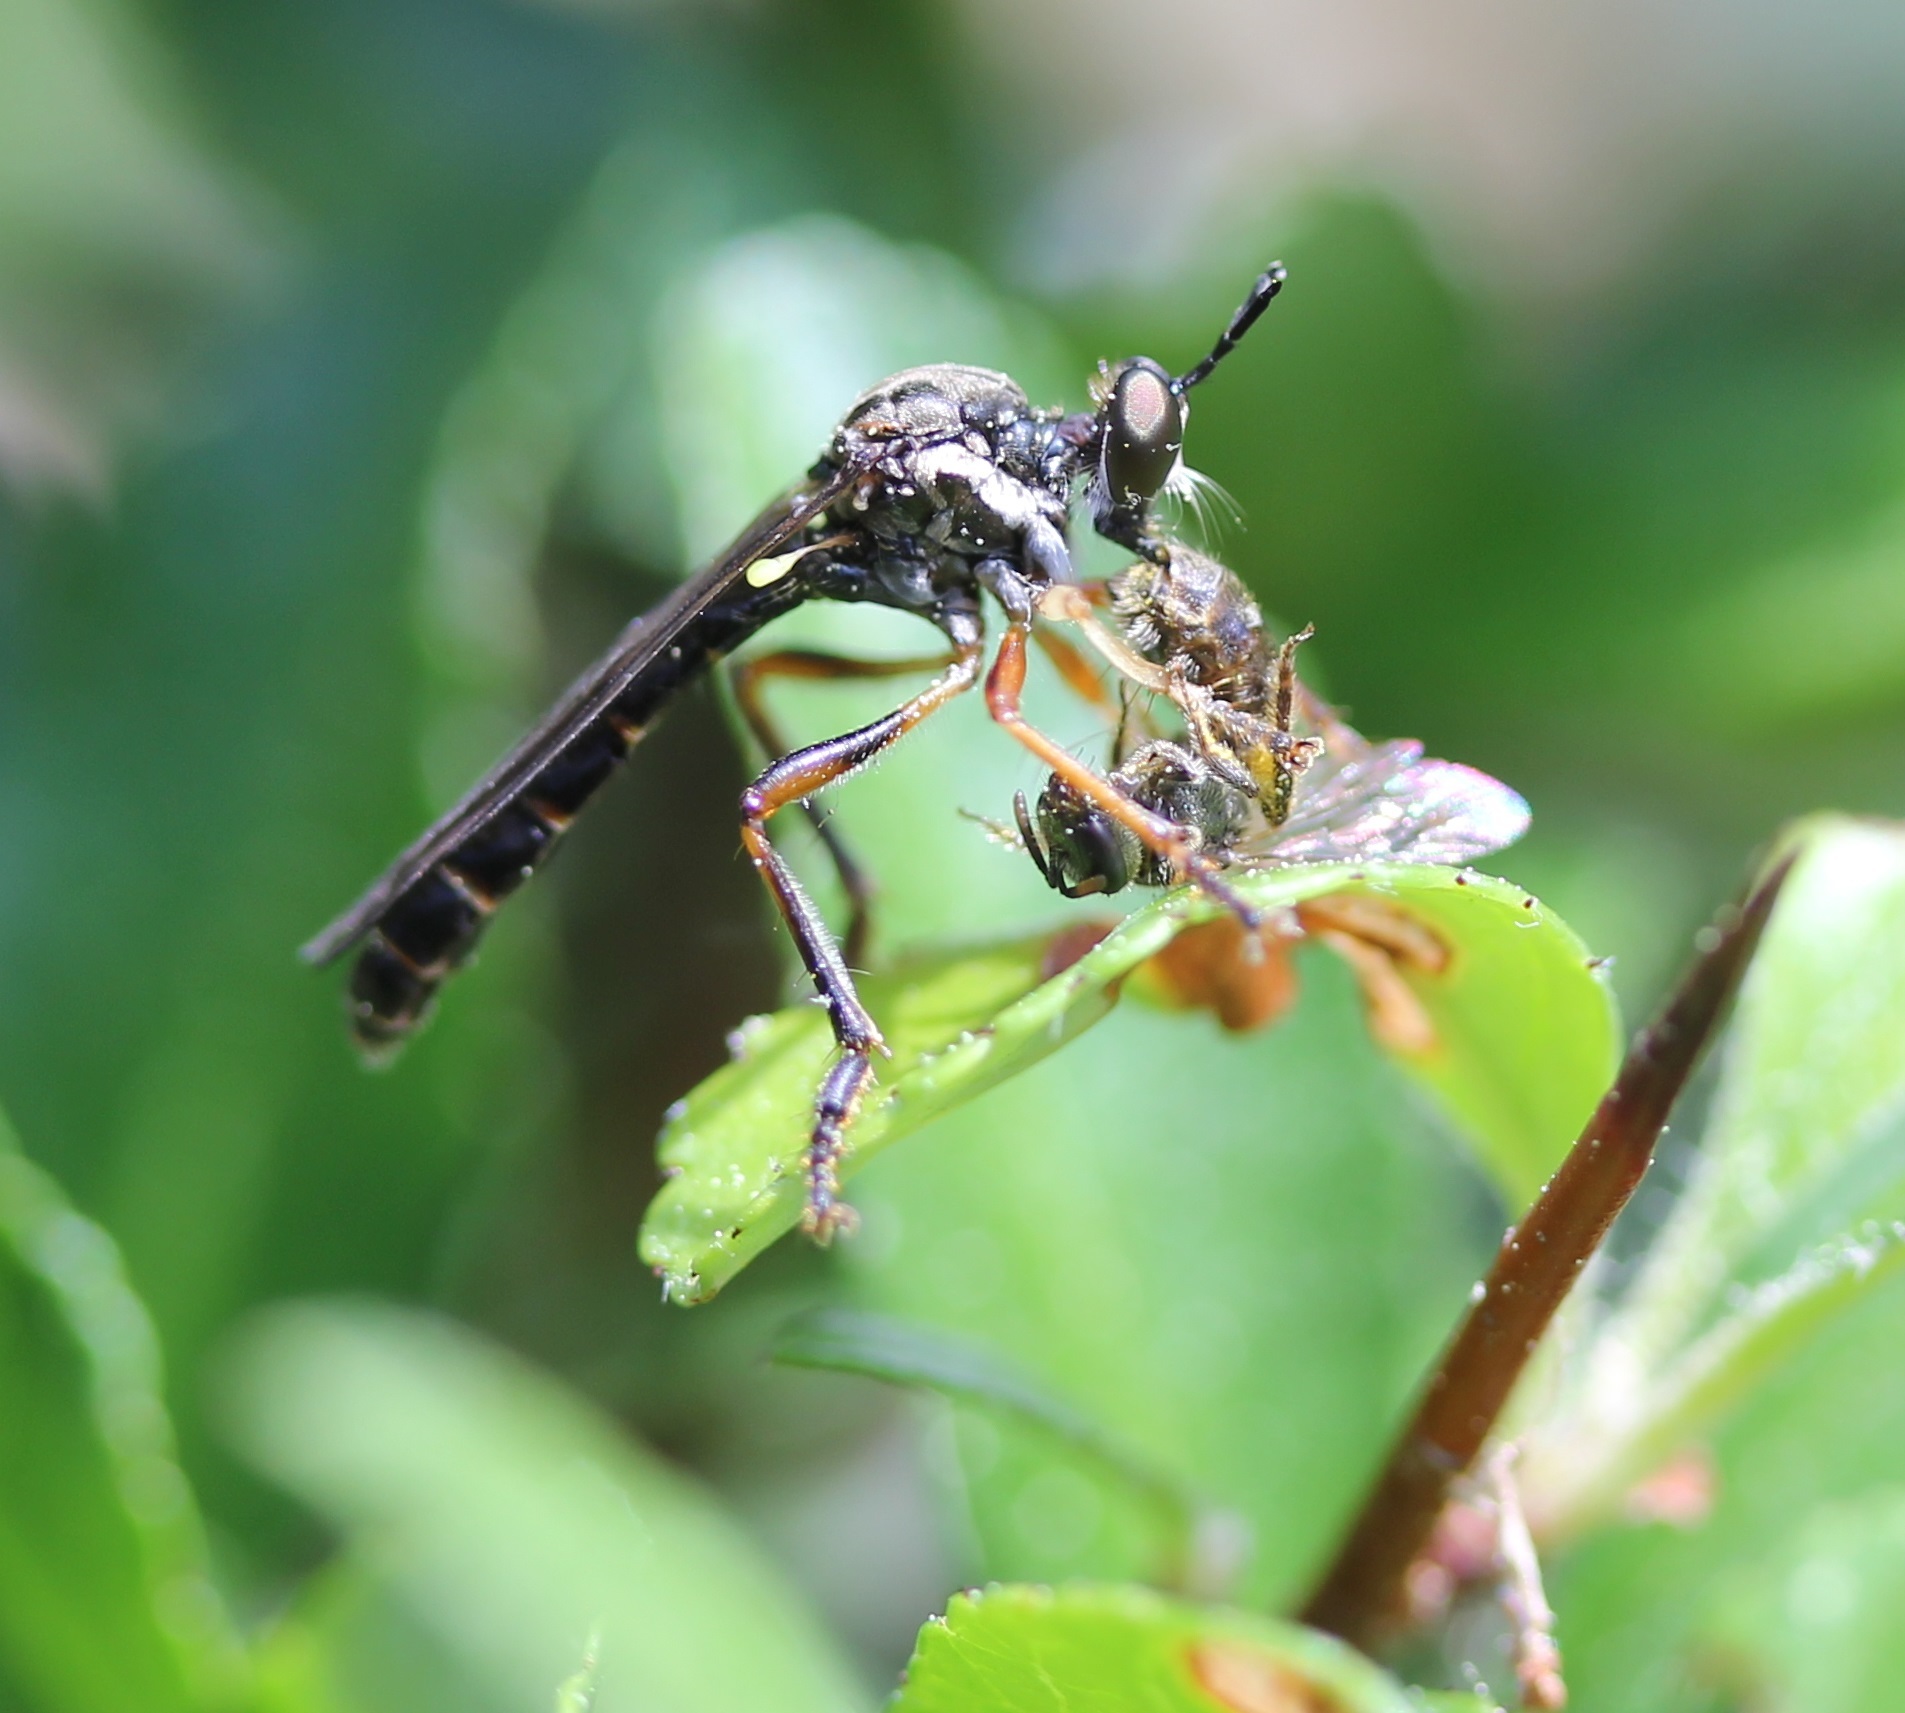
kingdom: Animalia
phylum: Arthropoda
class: Insecta
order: Diptera
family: Asilidae
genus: Dioctria
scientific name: Dioctria hyalipennis
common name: Stripe-legged robberfly
